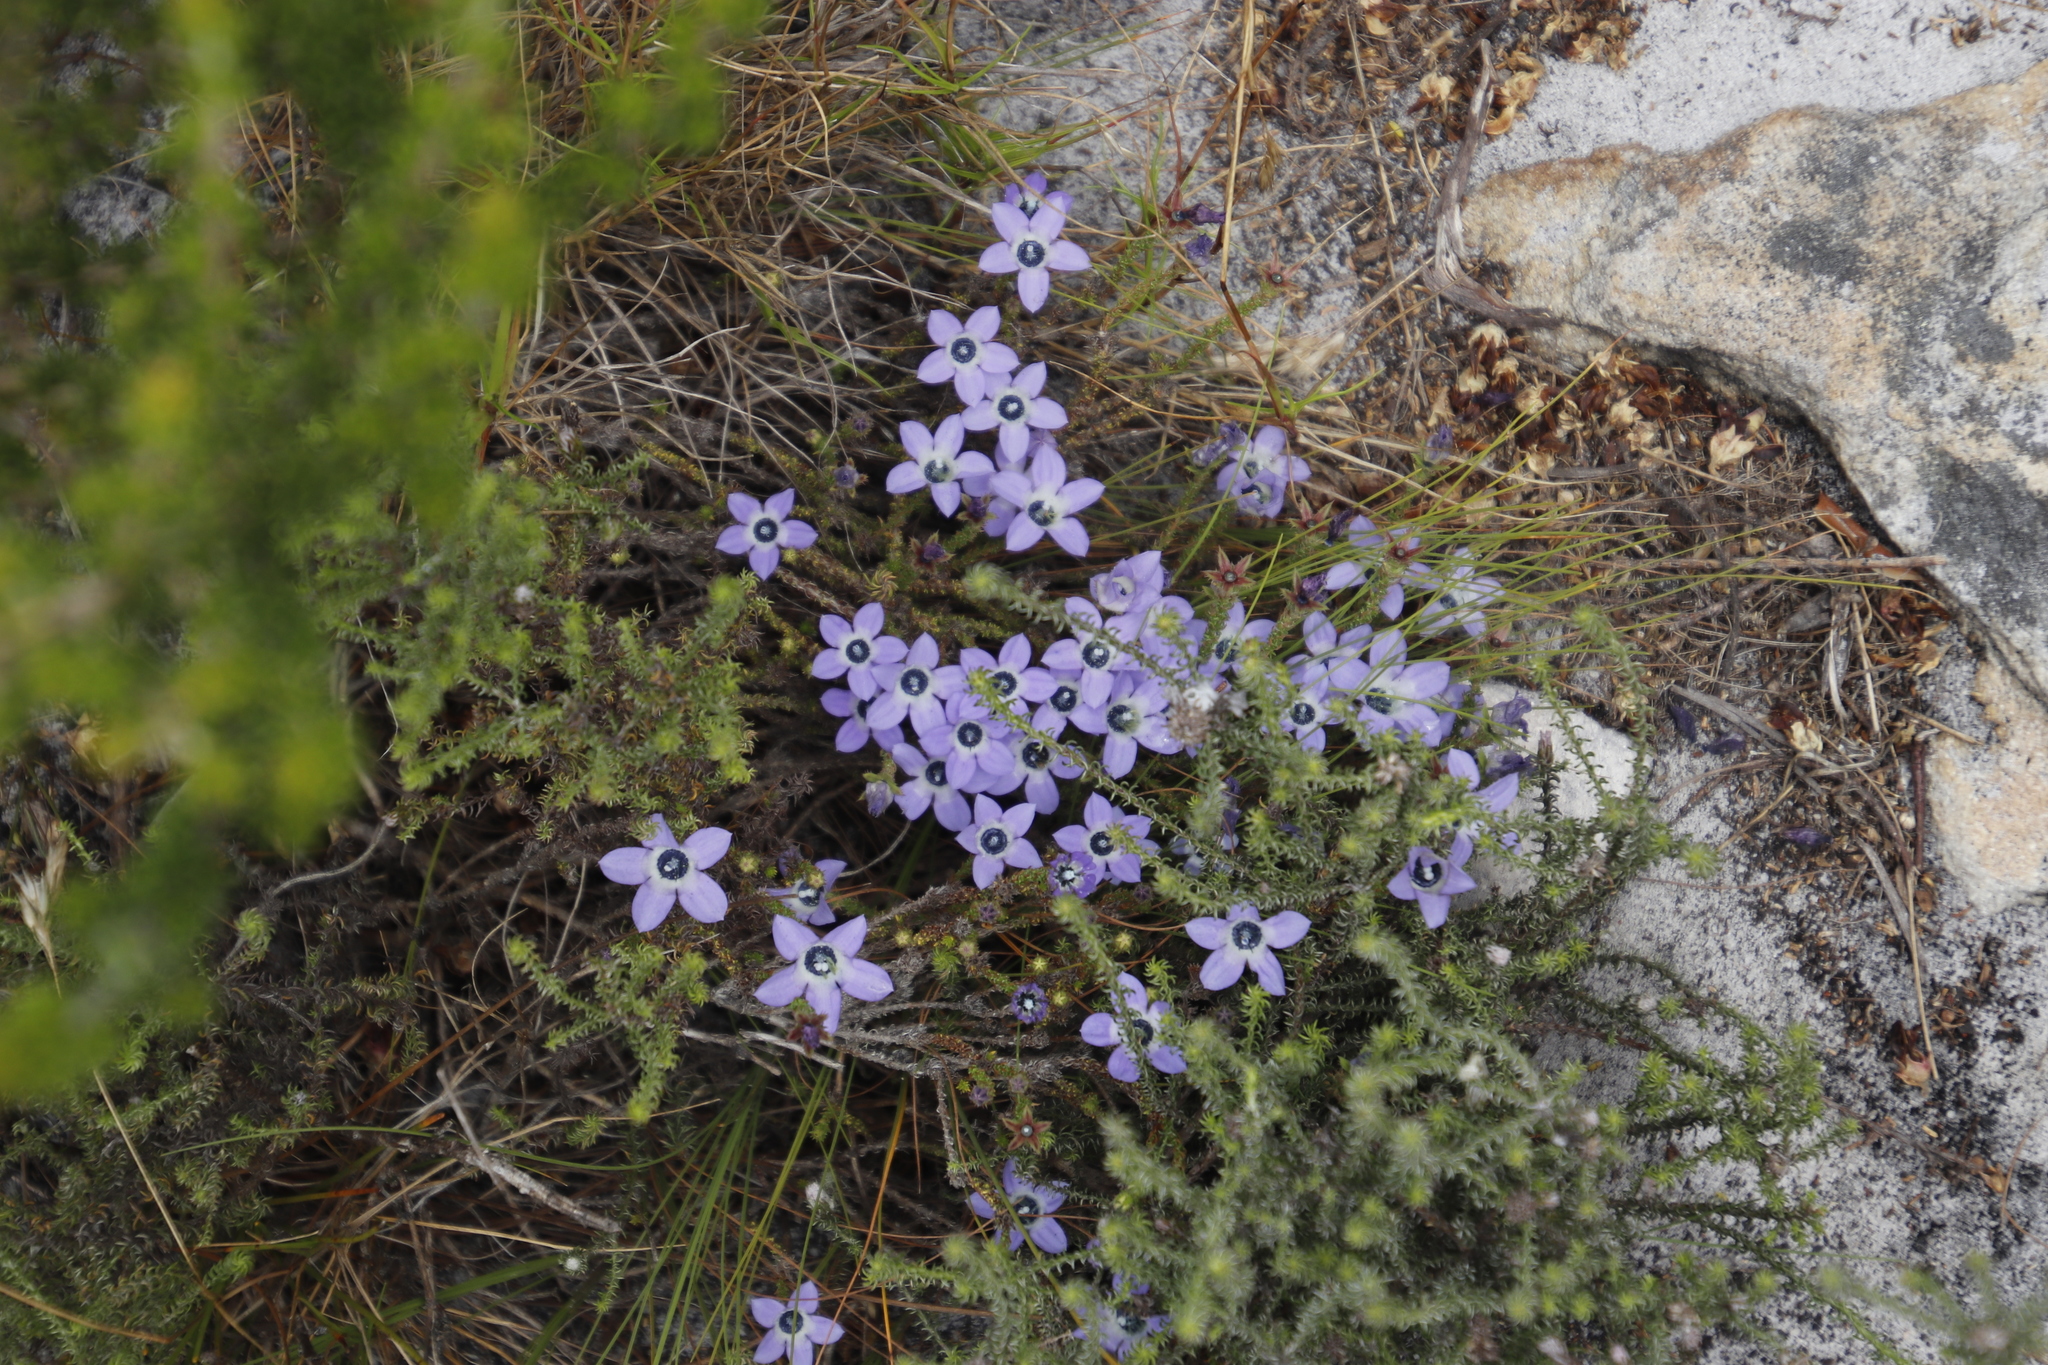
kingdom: Plantae
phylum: Tracheophyta
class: Magnoliopsida
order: Asterales
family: Campanulaceae
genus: Roella
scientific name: Roella triflora
